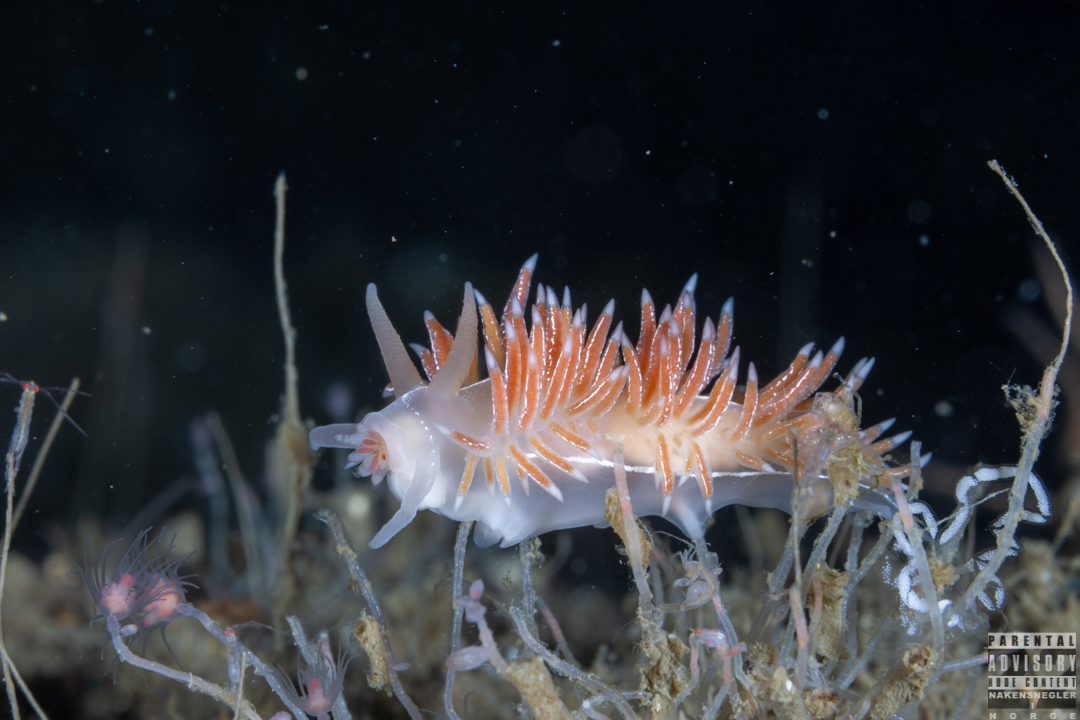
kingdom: Animalia
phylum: Mollusca
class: Gastropoda
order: Nudibranchia
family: Coryphellidae
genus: Coryphella
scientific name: Coryphella chriskaugei
